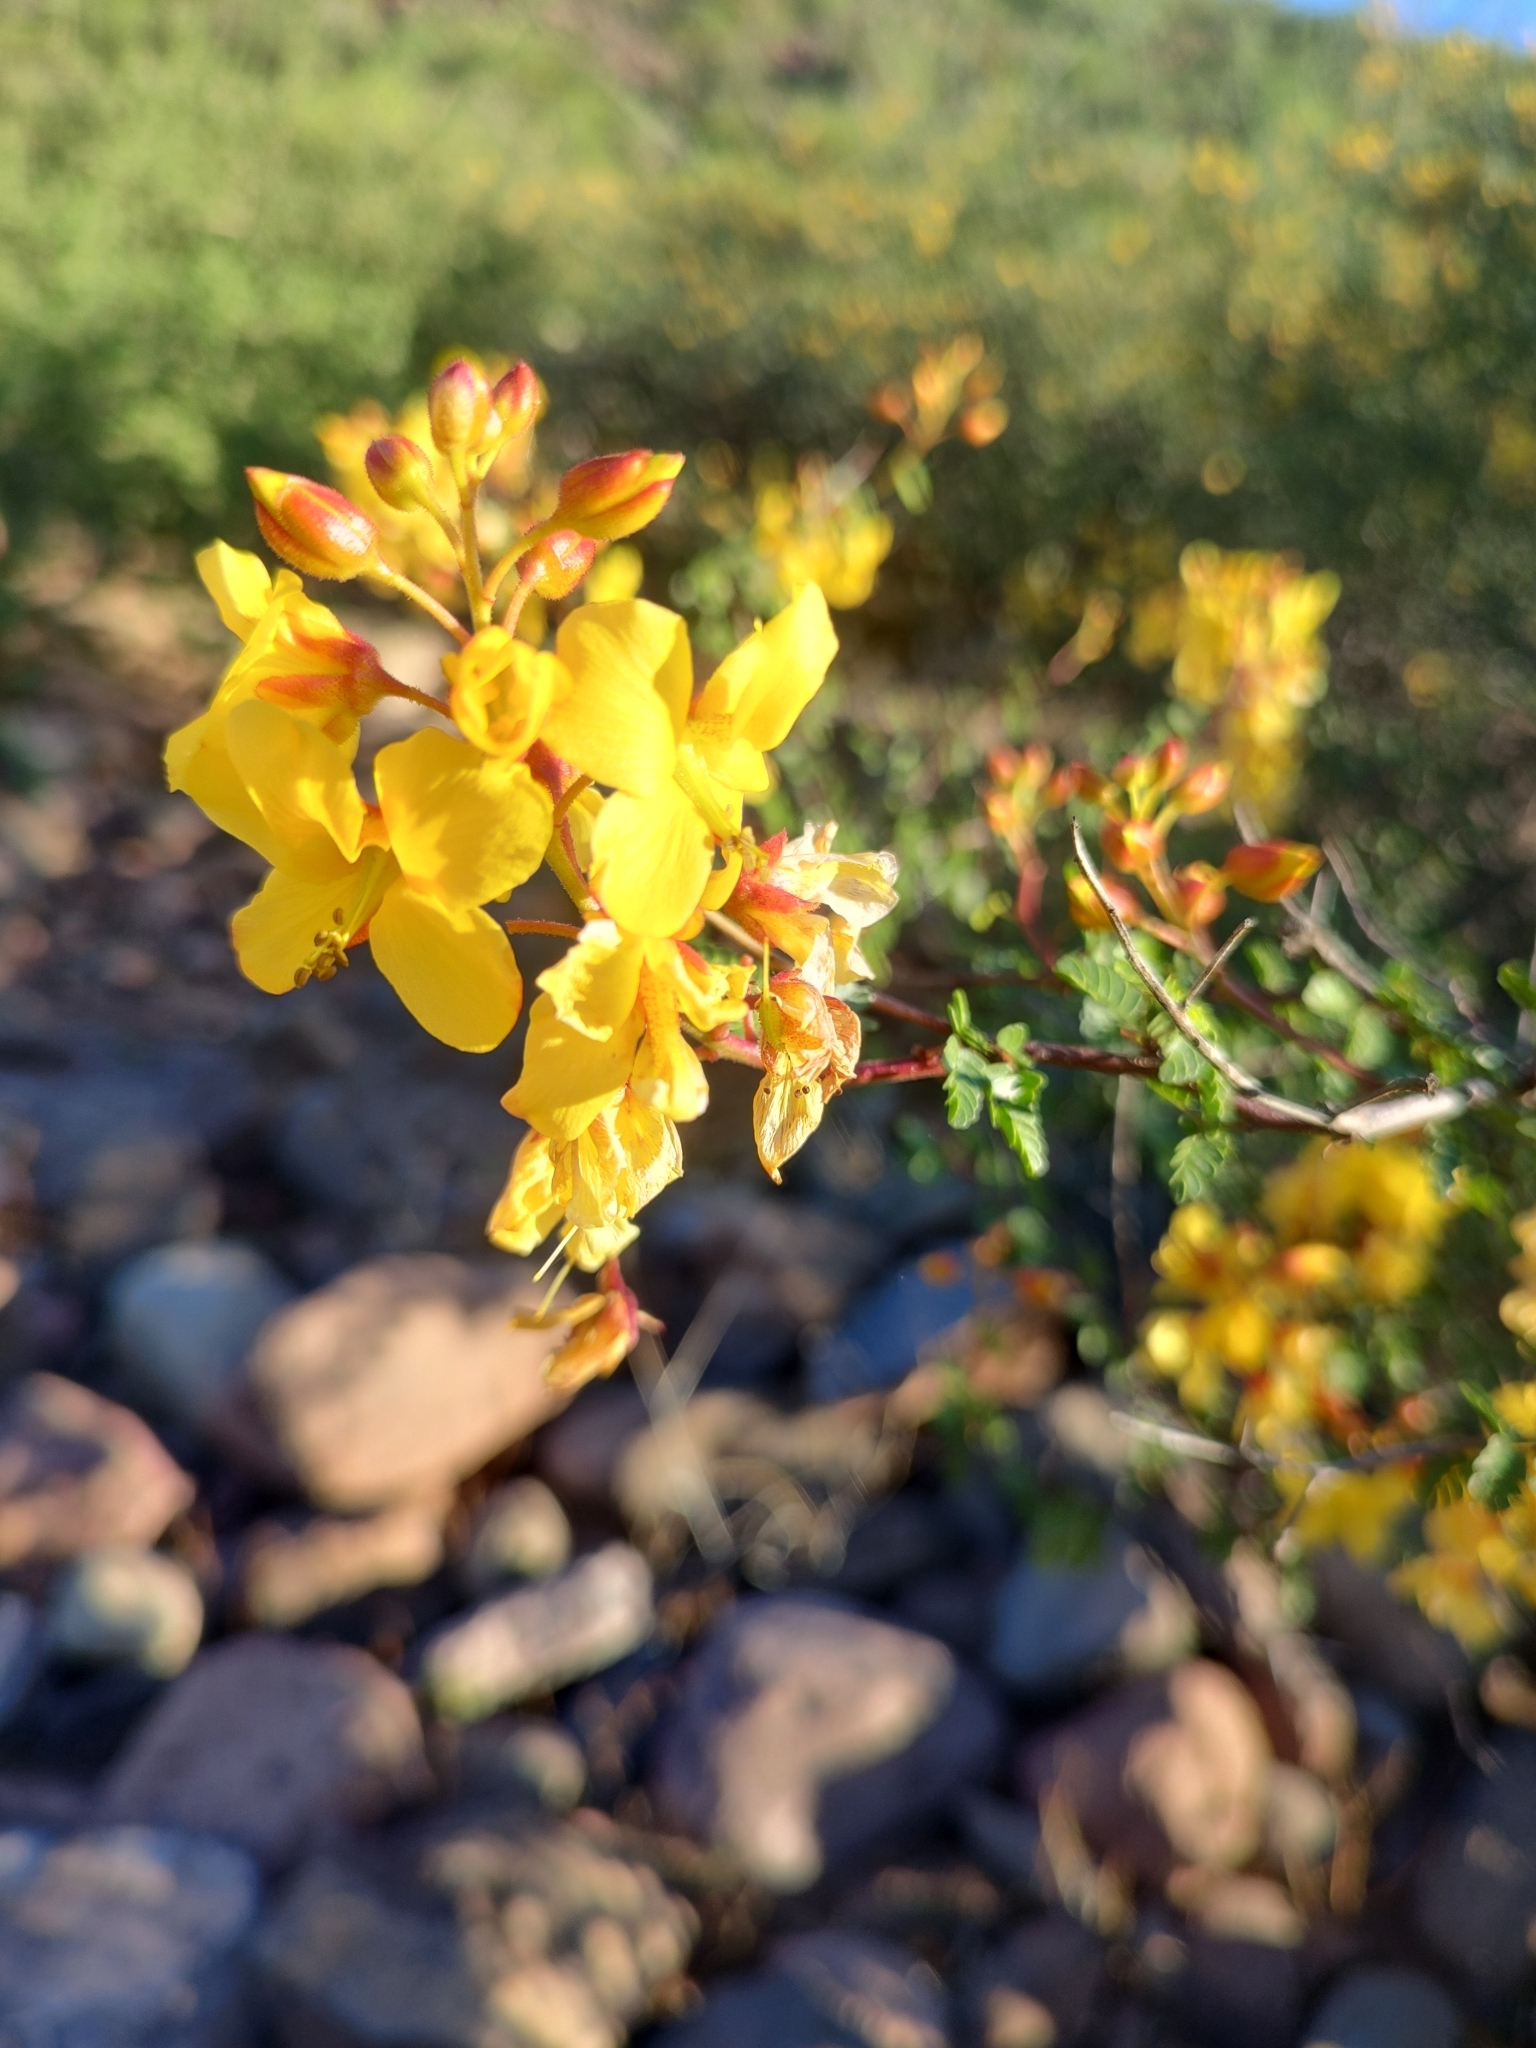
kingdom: Plantae
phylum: Tracheophyta
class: Magnoliopsida
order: Fabales
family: Fabaceae
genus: Erythrostemon
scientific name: Erythrostemon placidus
